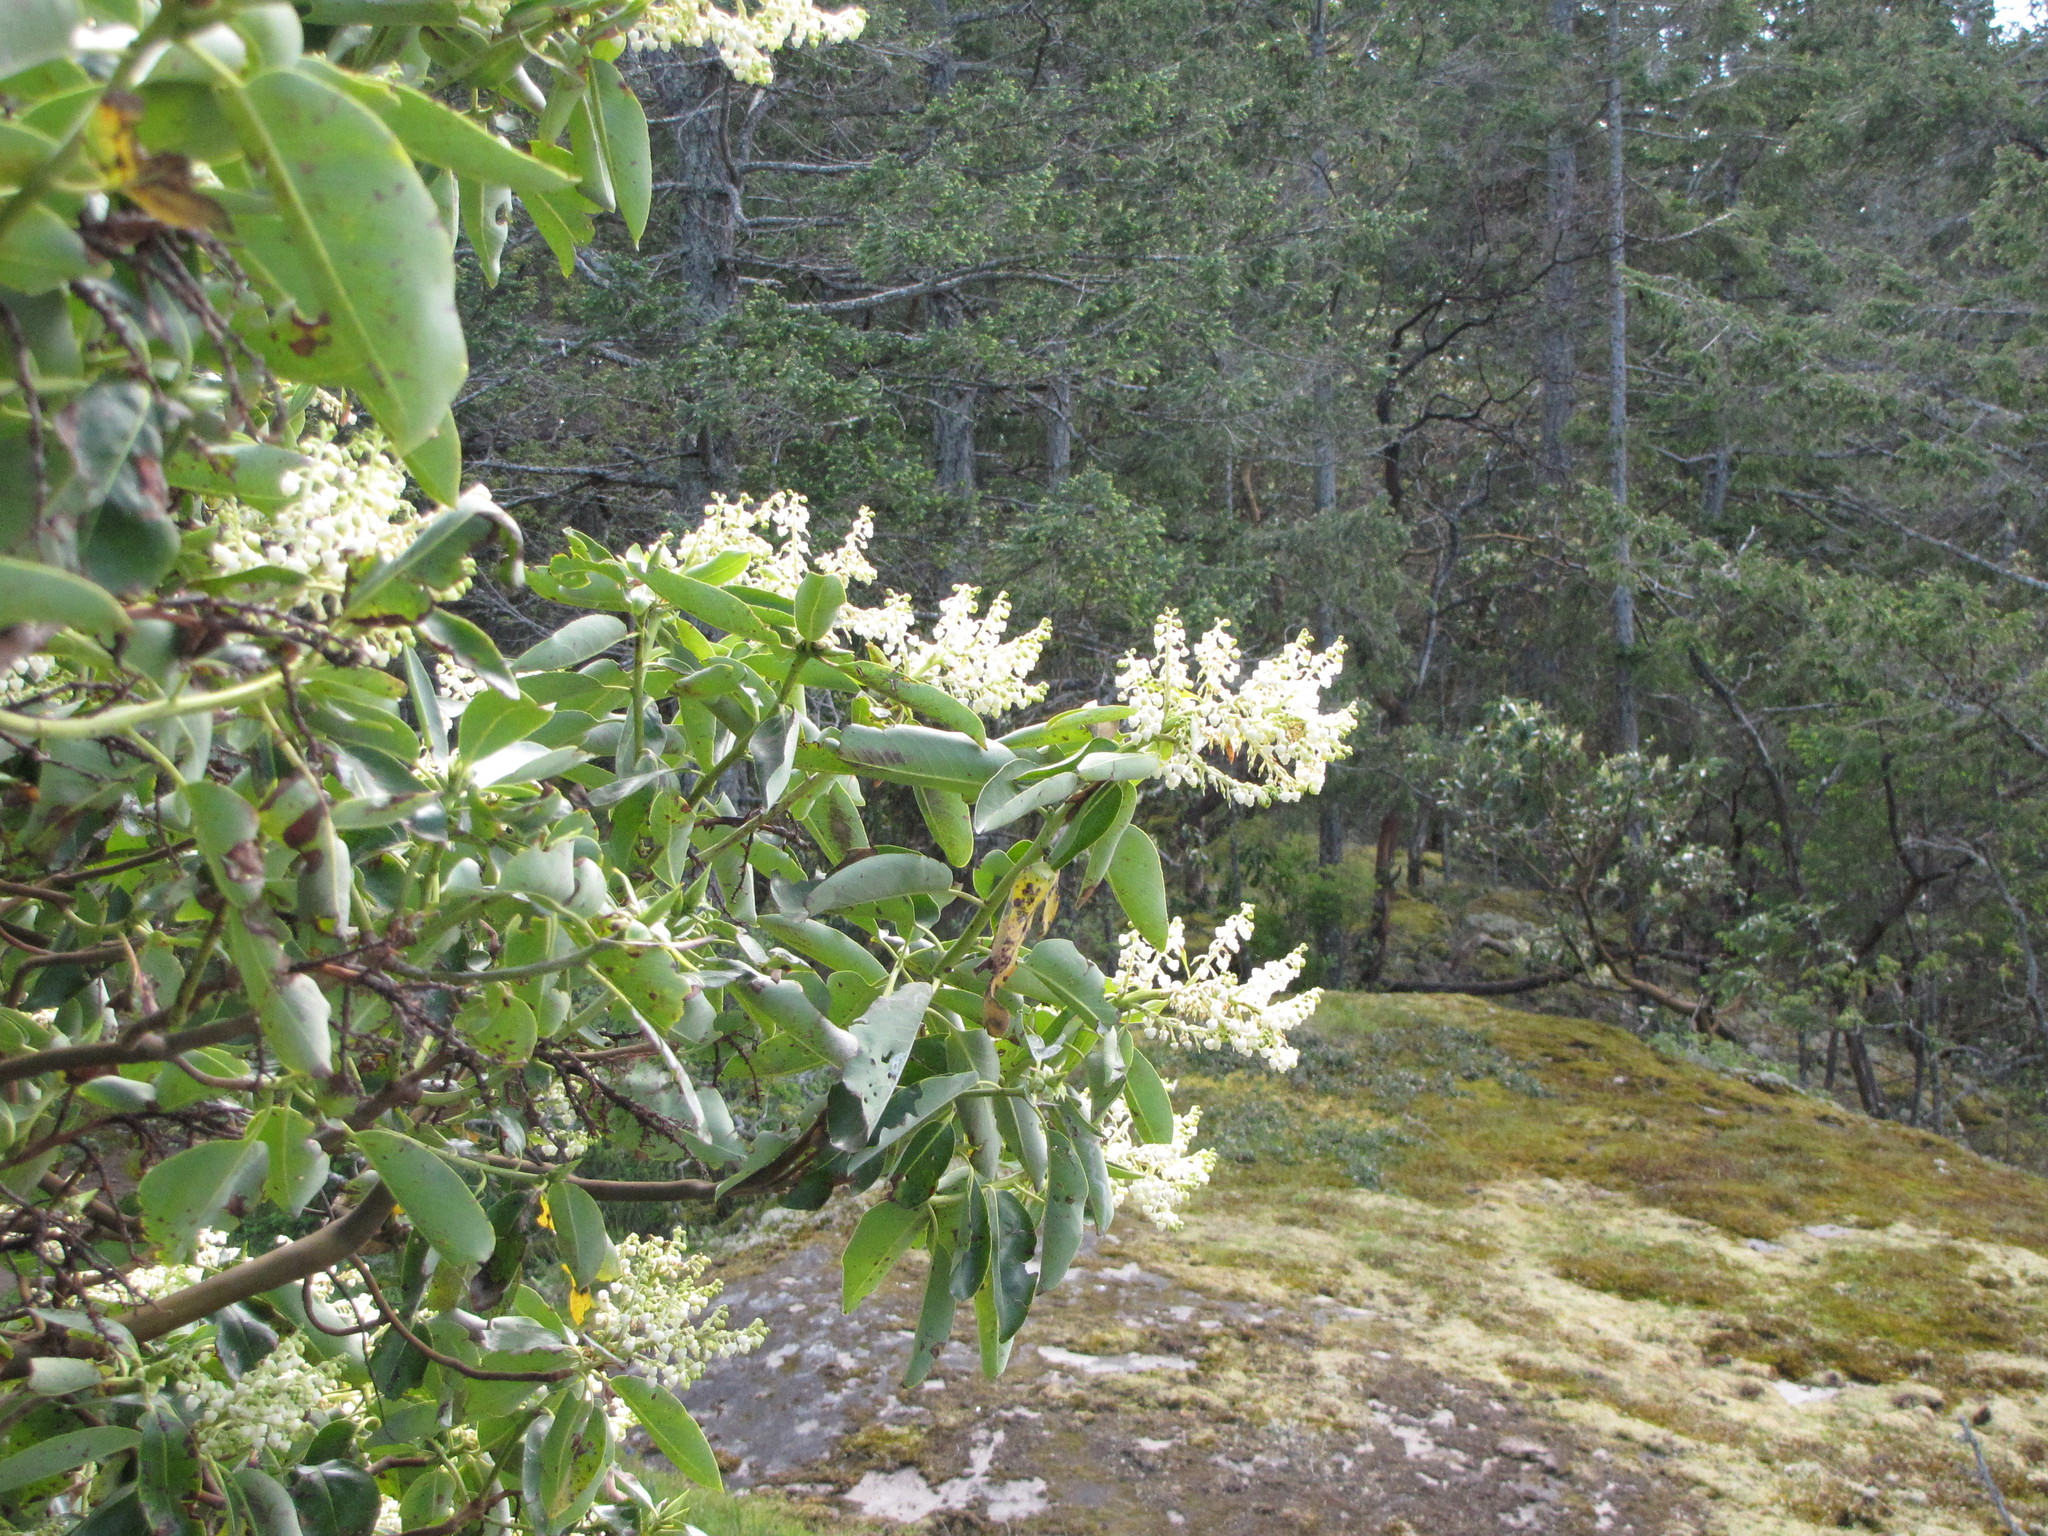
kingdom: Plantae
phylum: Tracheophyta
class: Magnoliopsida
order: Ericales
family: Ericaceae
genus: Arbutus
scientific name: Arbutus menziesii
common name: Pacific madrone
